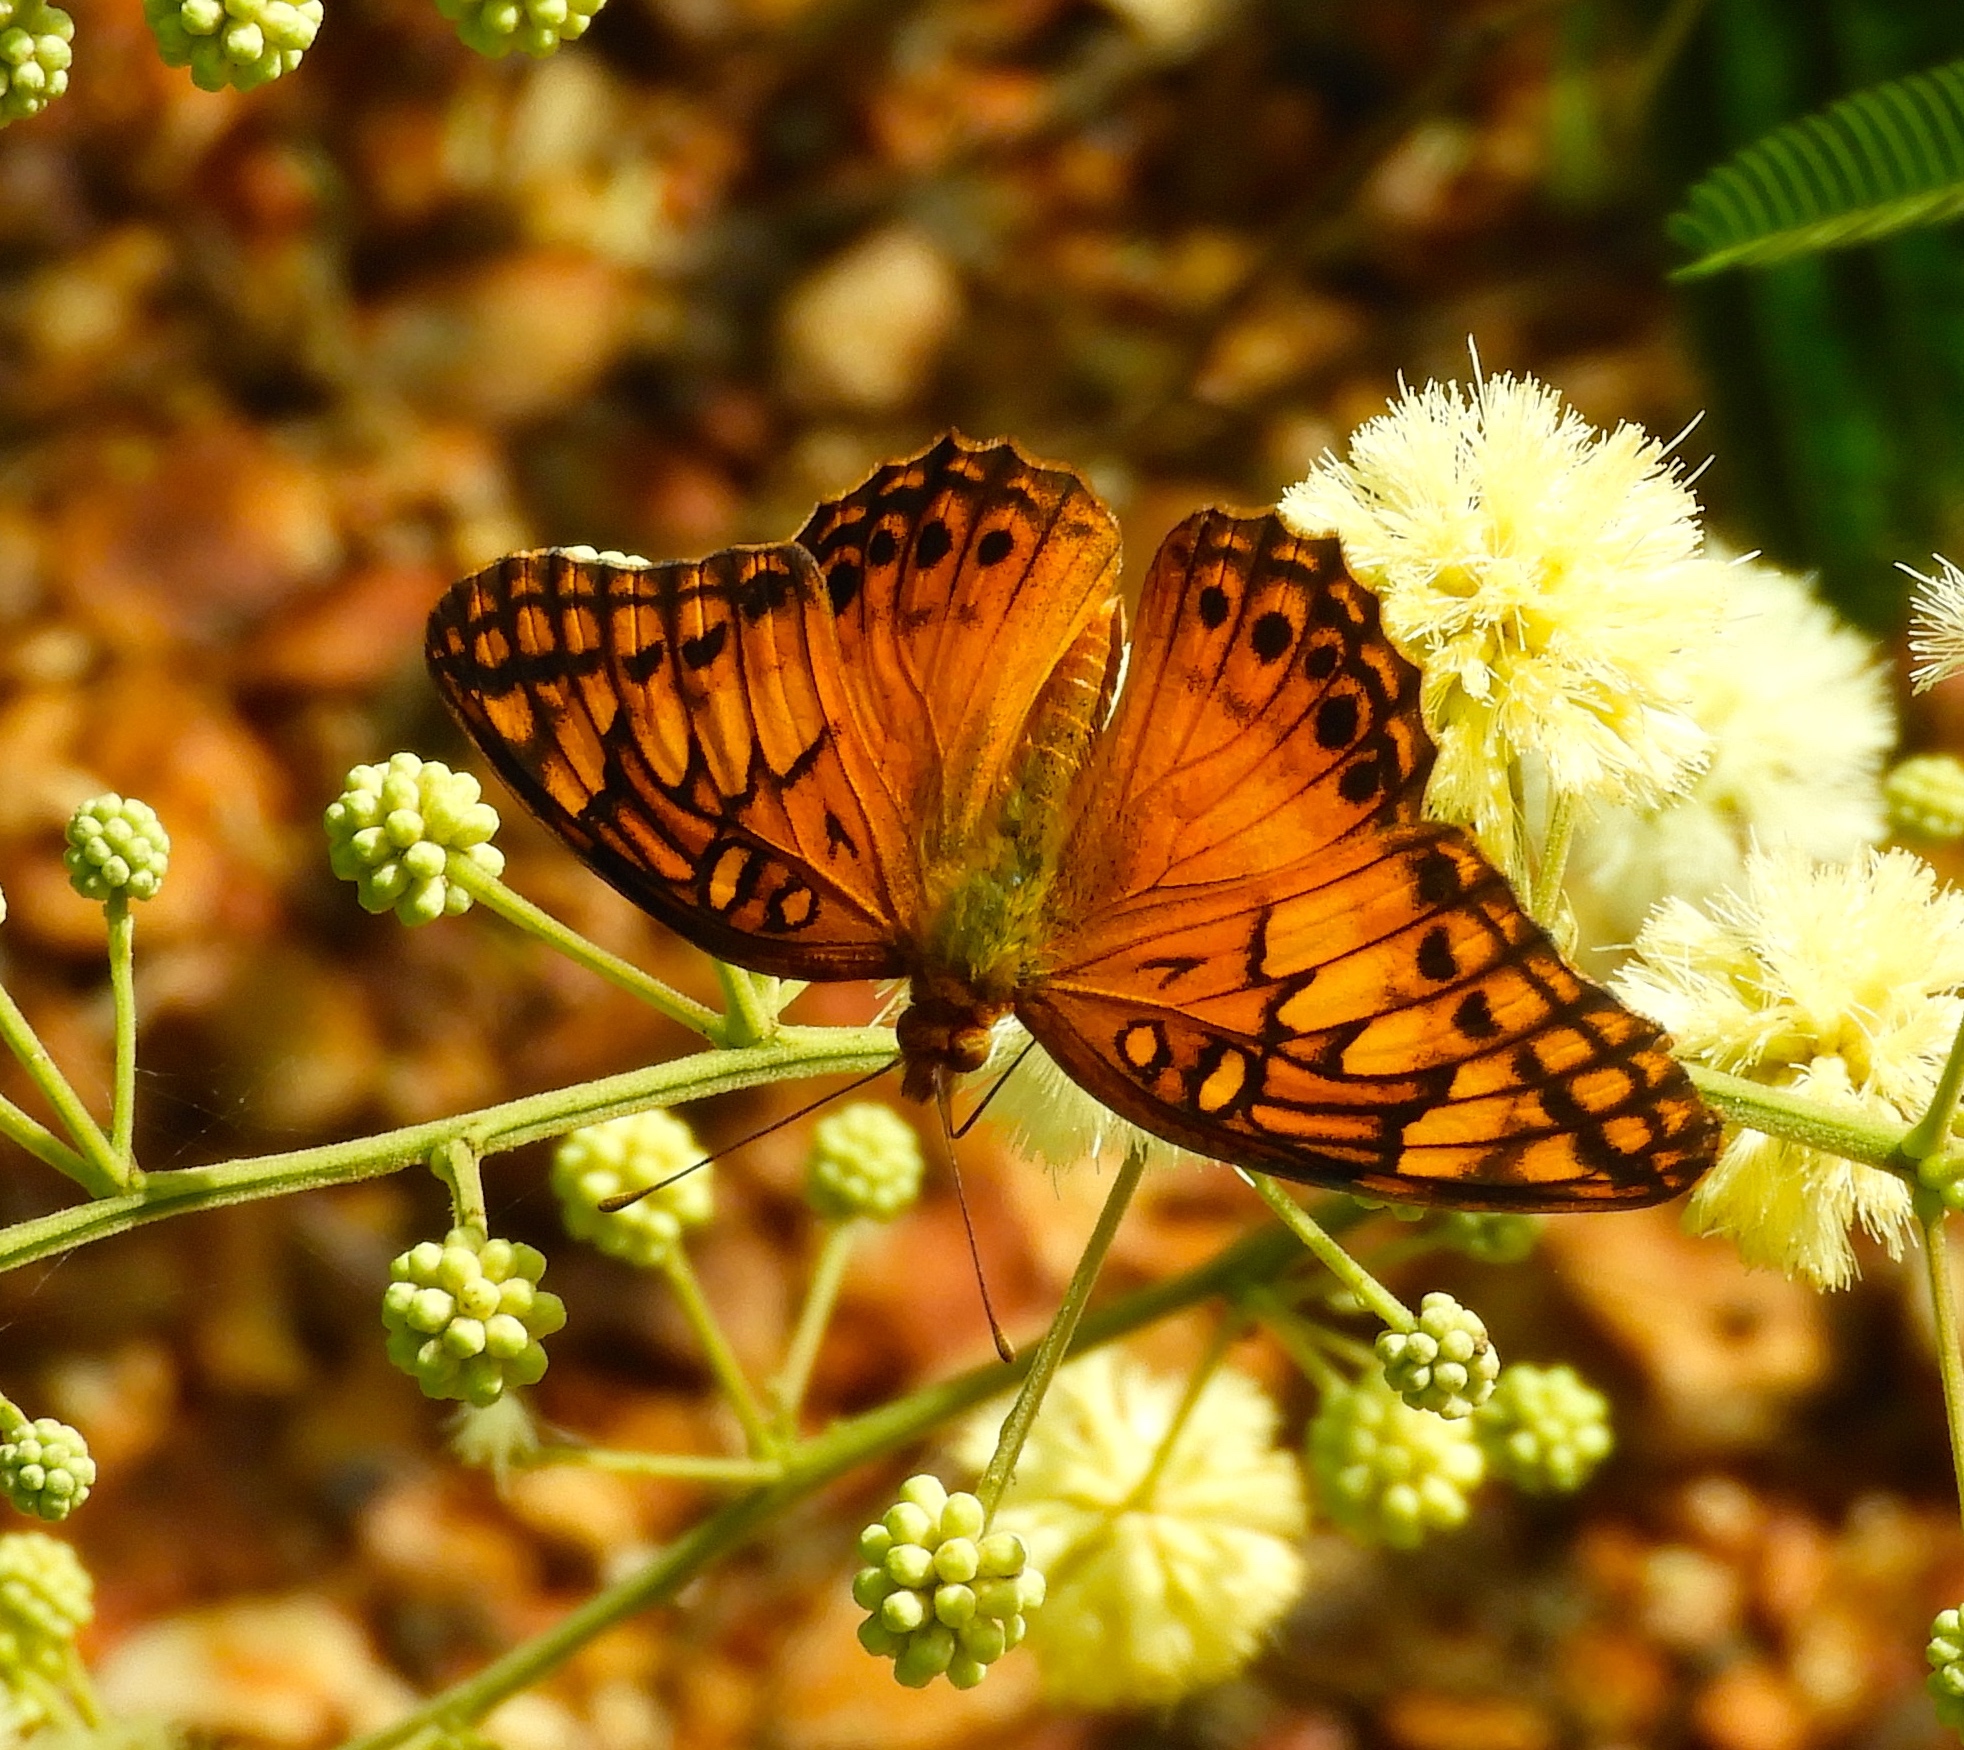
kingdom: Animalia
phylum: Arthropoda
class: Insecta
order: Lepidoptera
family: Nymphalidae
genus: Euptoieta
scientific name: Euptoieta hegesia
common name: Mexican fritillary
